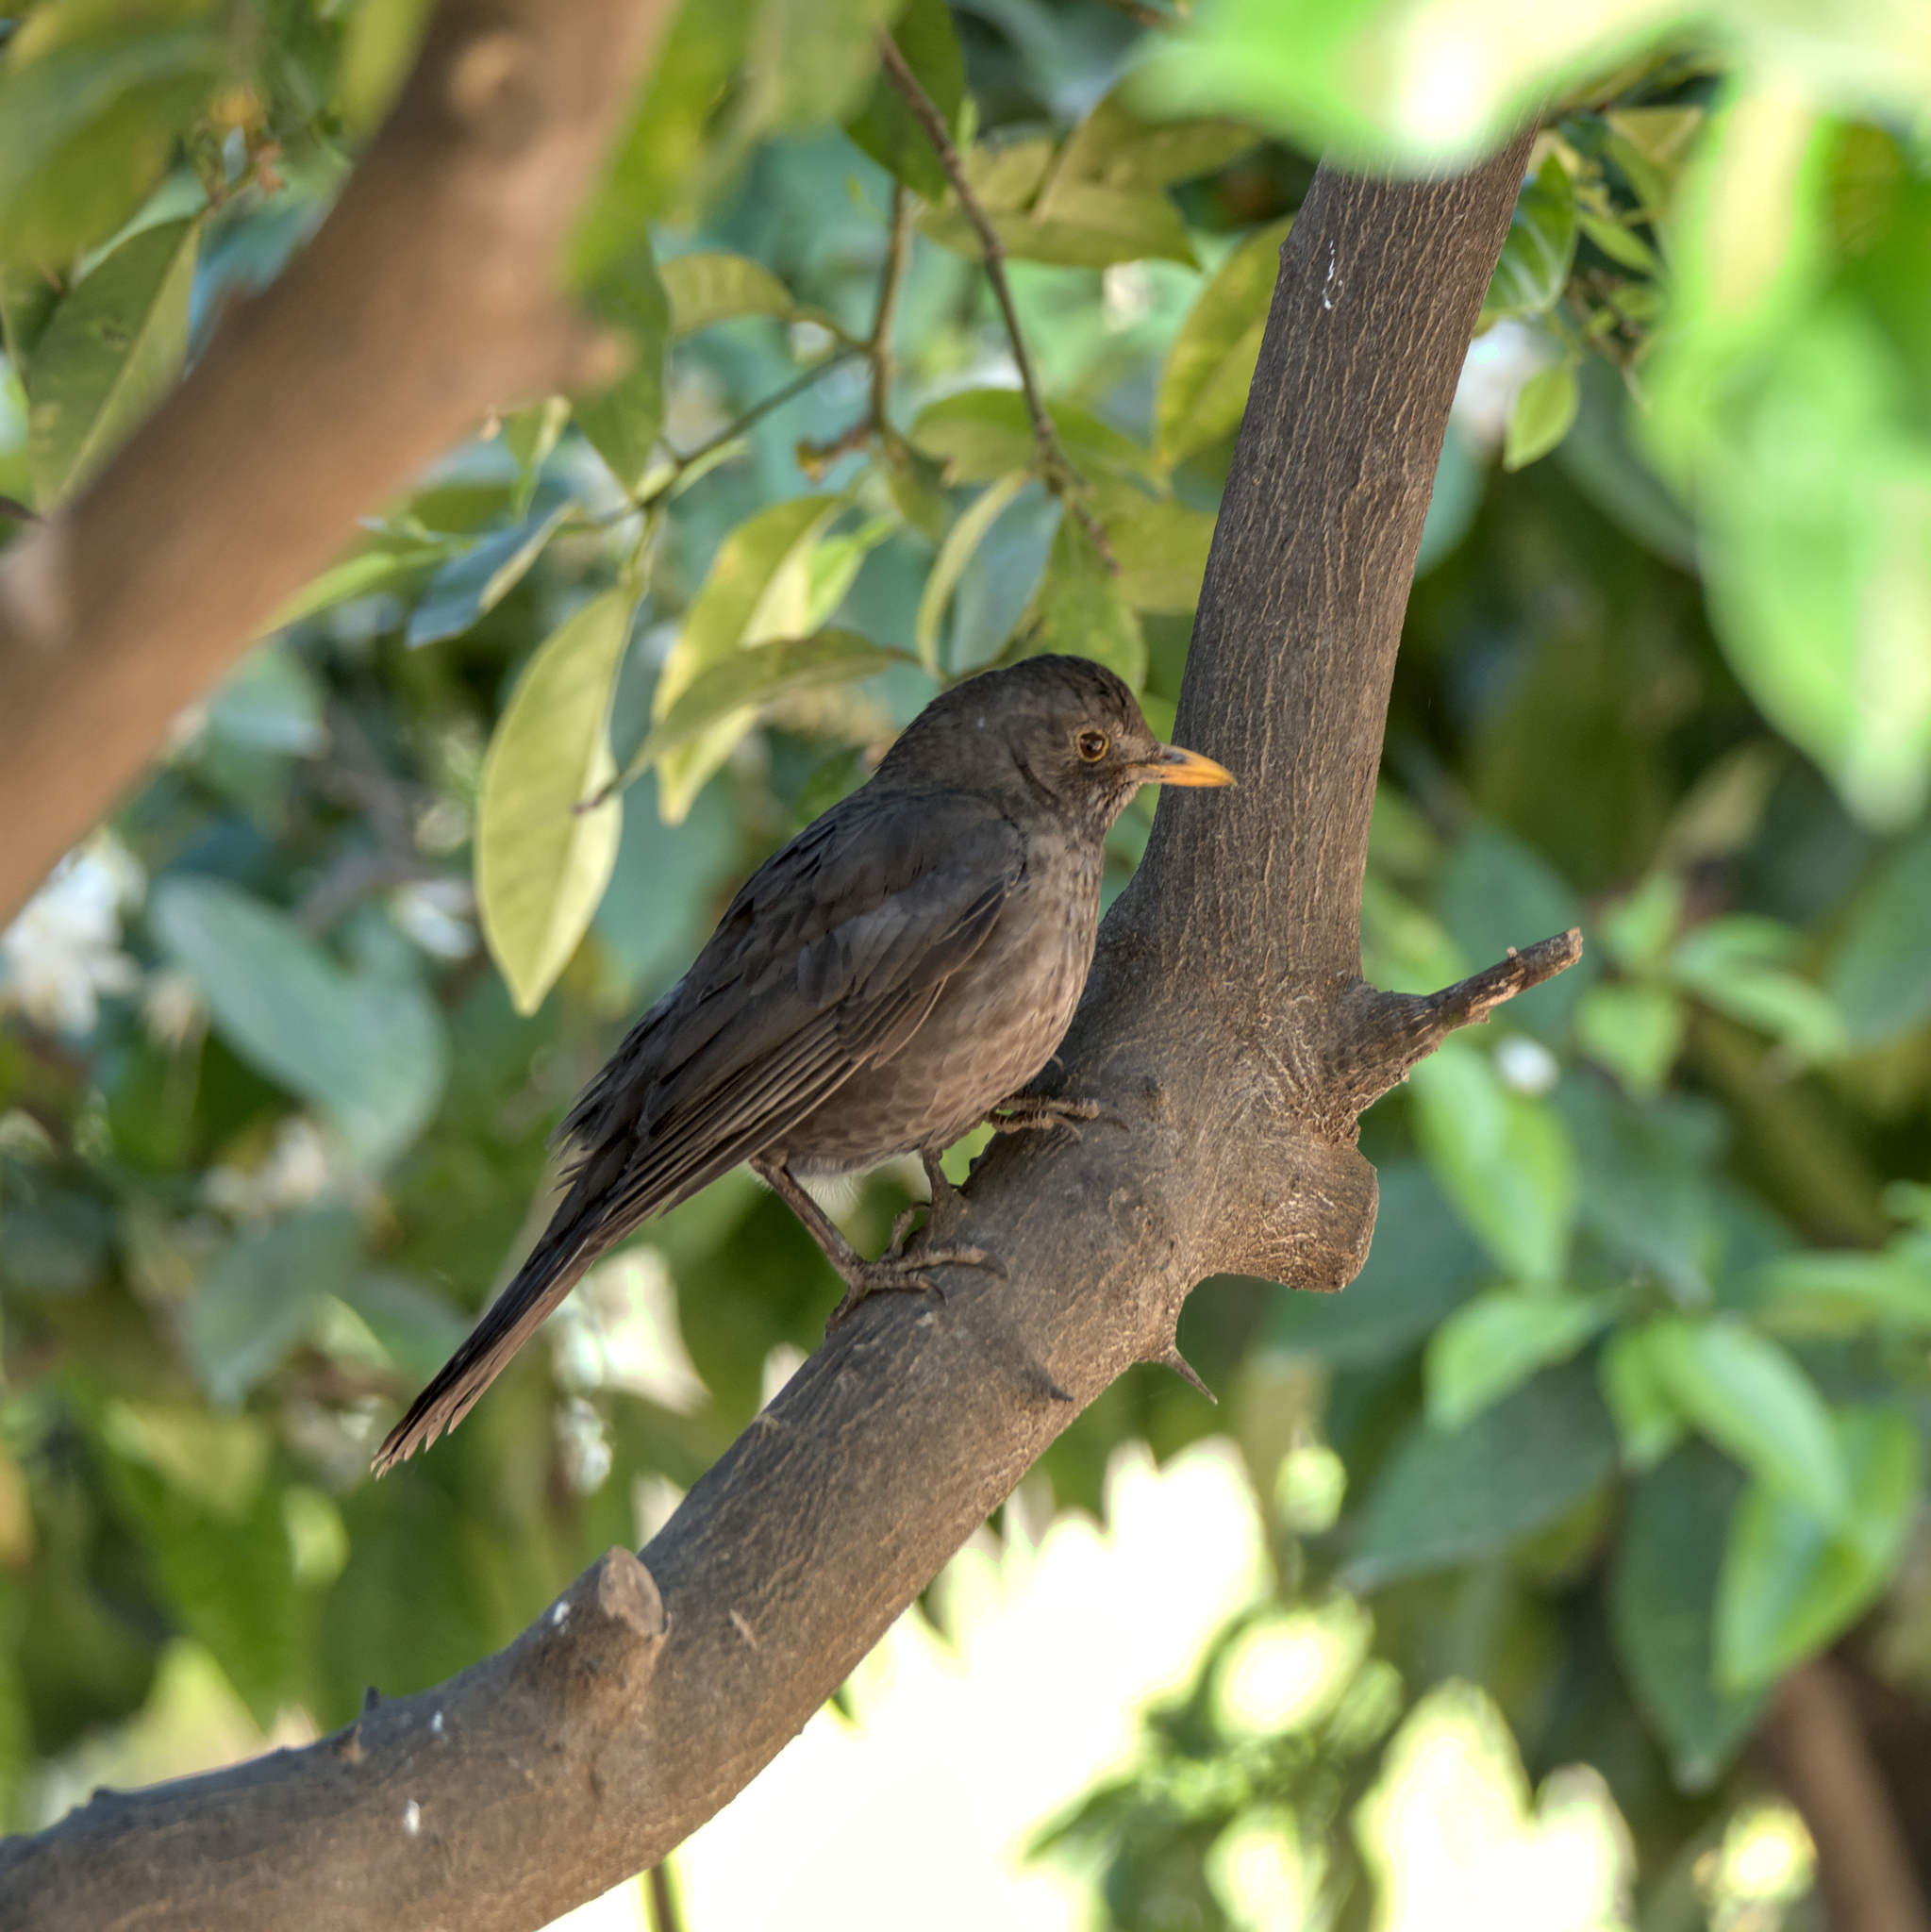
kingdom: Animalia
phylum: Chordata
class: Aves
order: Passeriformes
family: Turdidae
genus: Turdus
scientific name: Turdus merula
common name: Common blackbird
